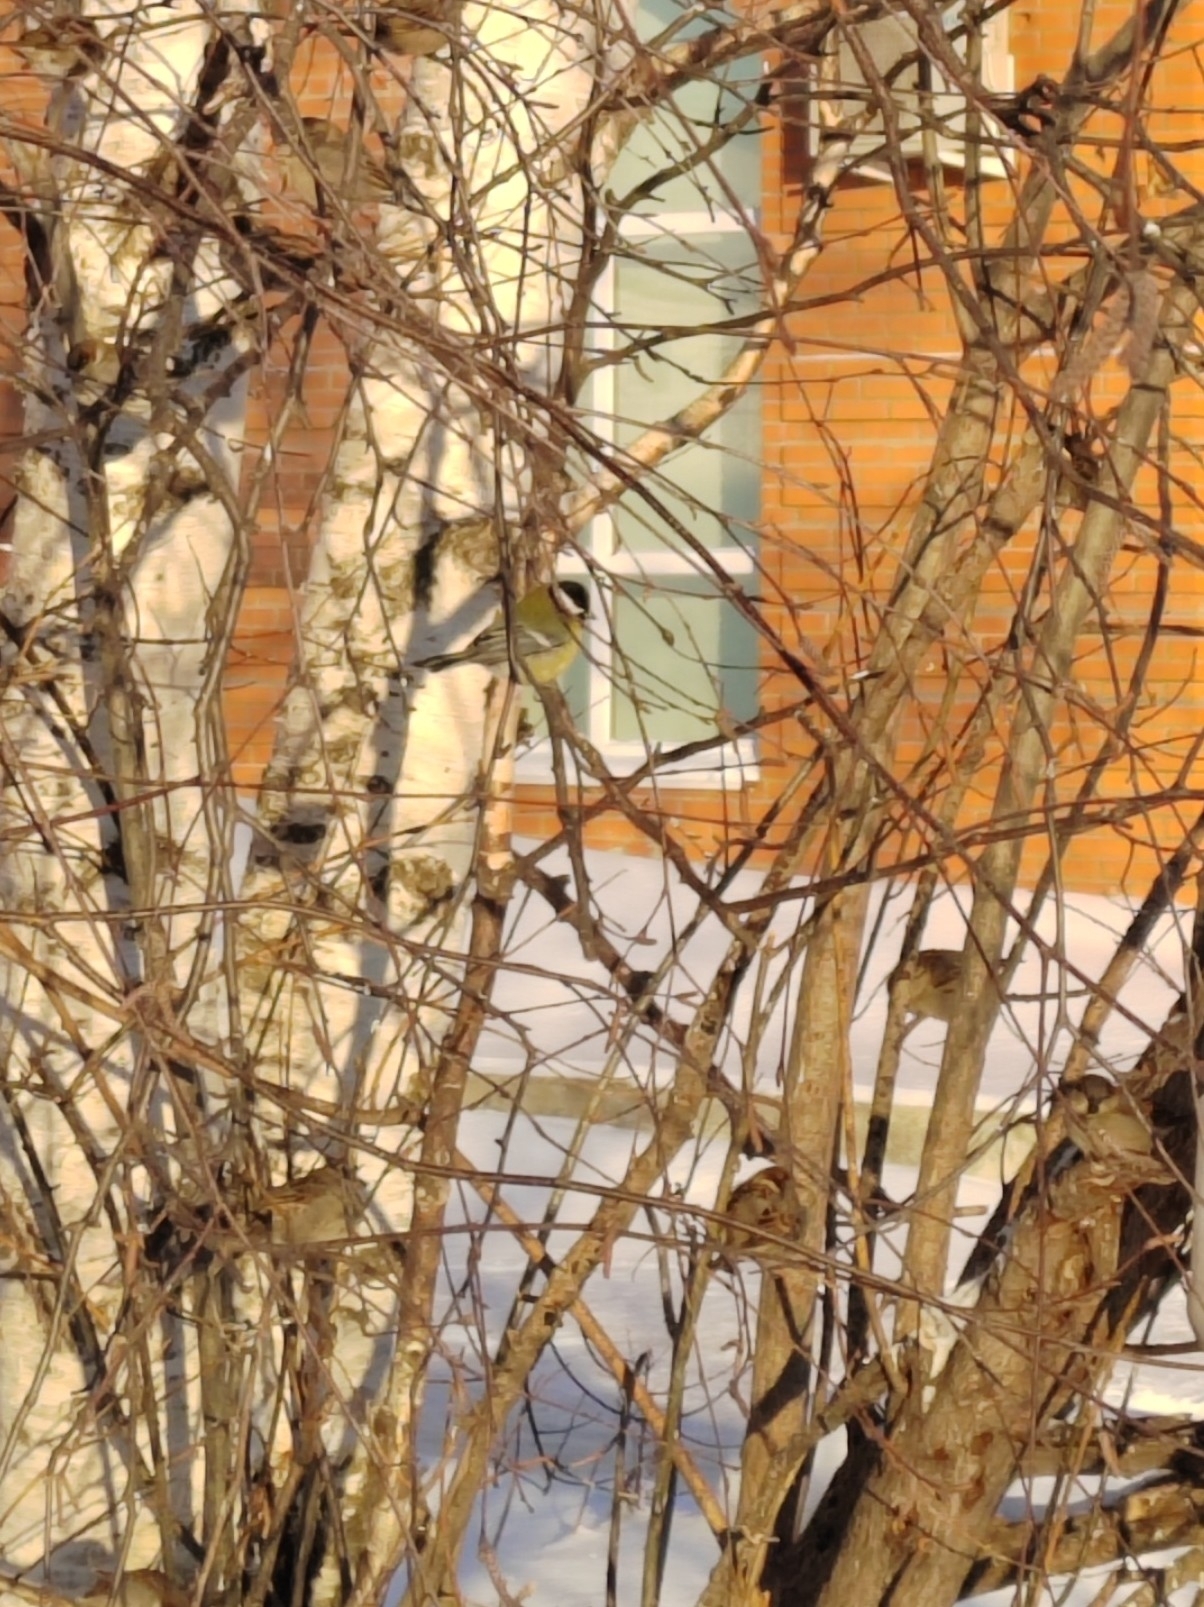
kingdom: Animalia
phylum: Chordata
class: Aves
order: Passeriformes
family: Paridae
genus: Parus
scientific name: Parus major
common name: Great tit
